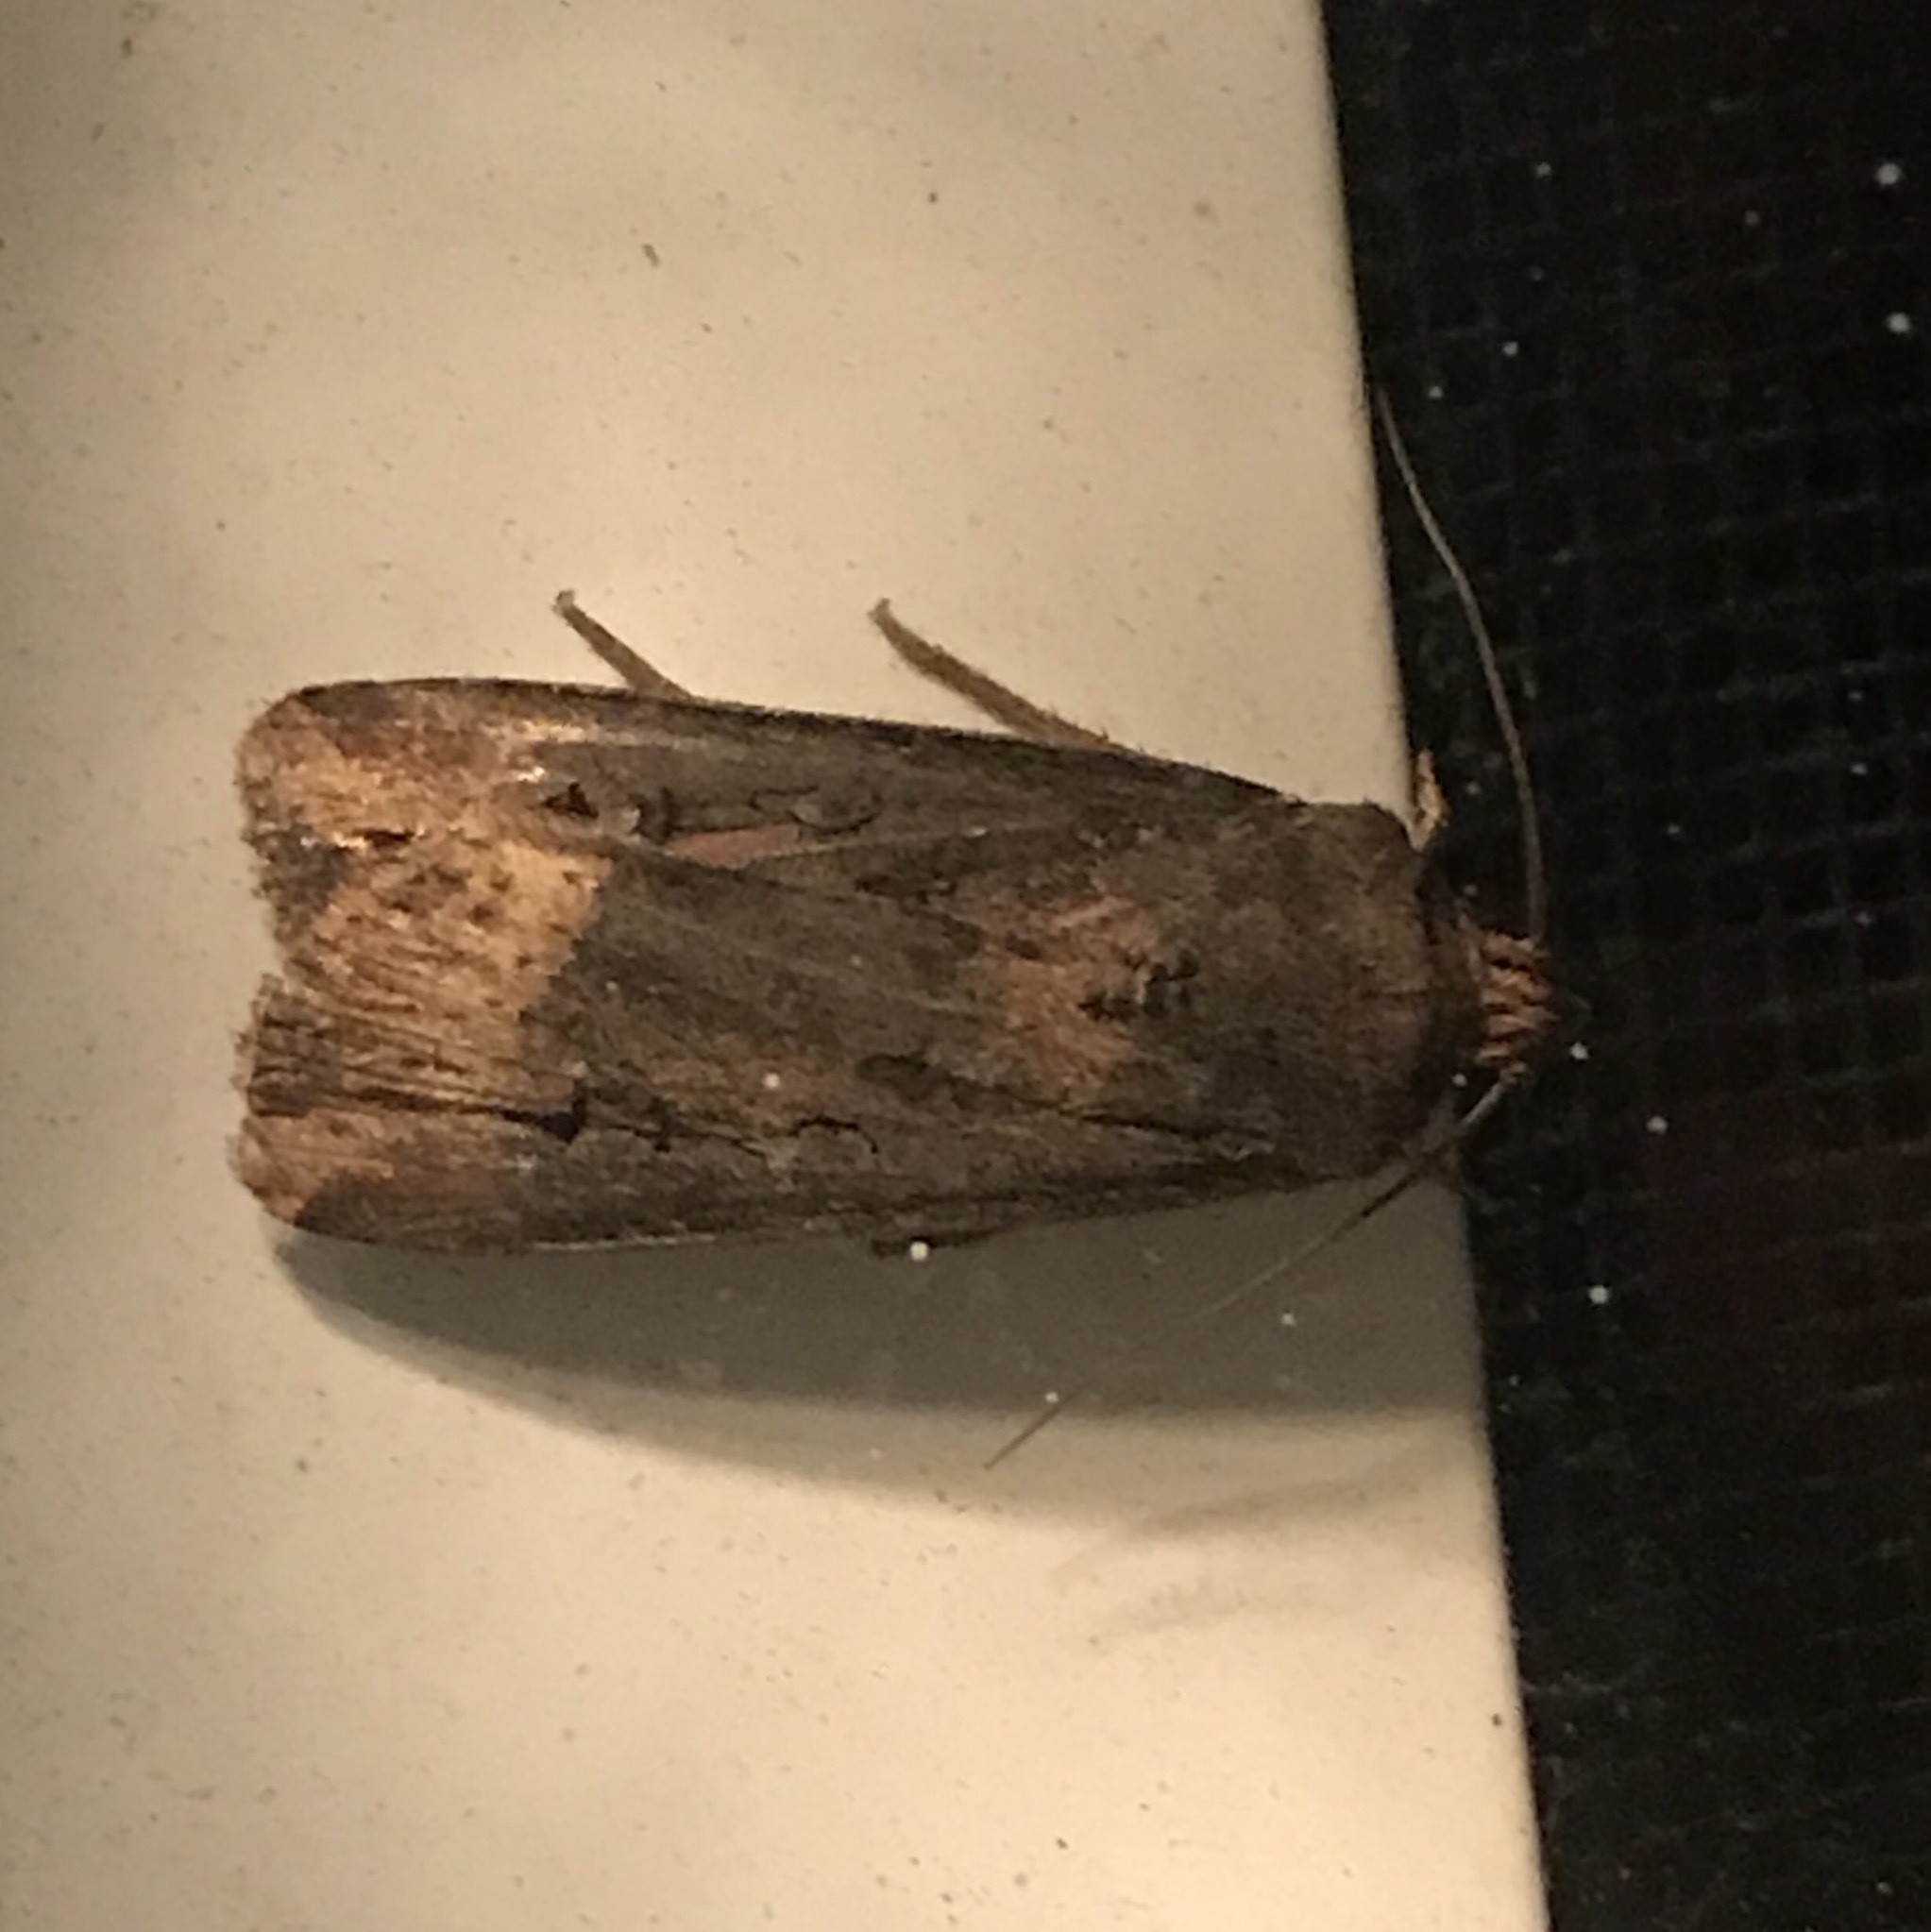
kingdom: Animalia
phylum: Arthropoda
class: Insecta
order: Lepidoptera
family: Noctuidae
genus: Agrotis
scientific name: Agrotis ipsilon
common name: Dark sword-grass
